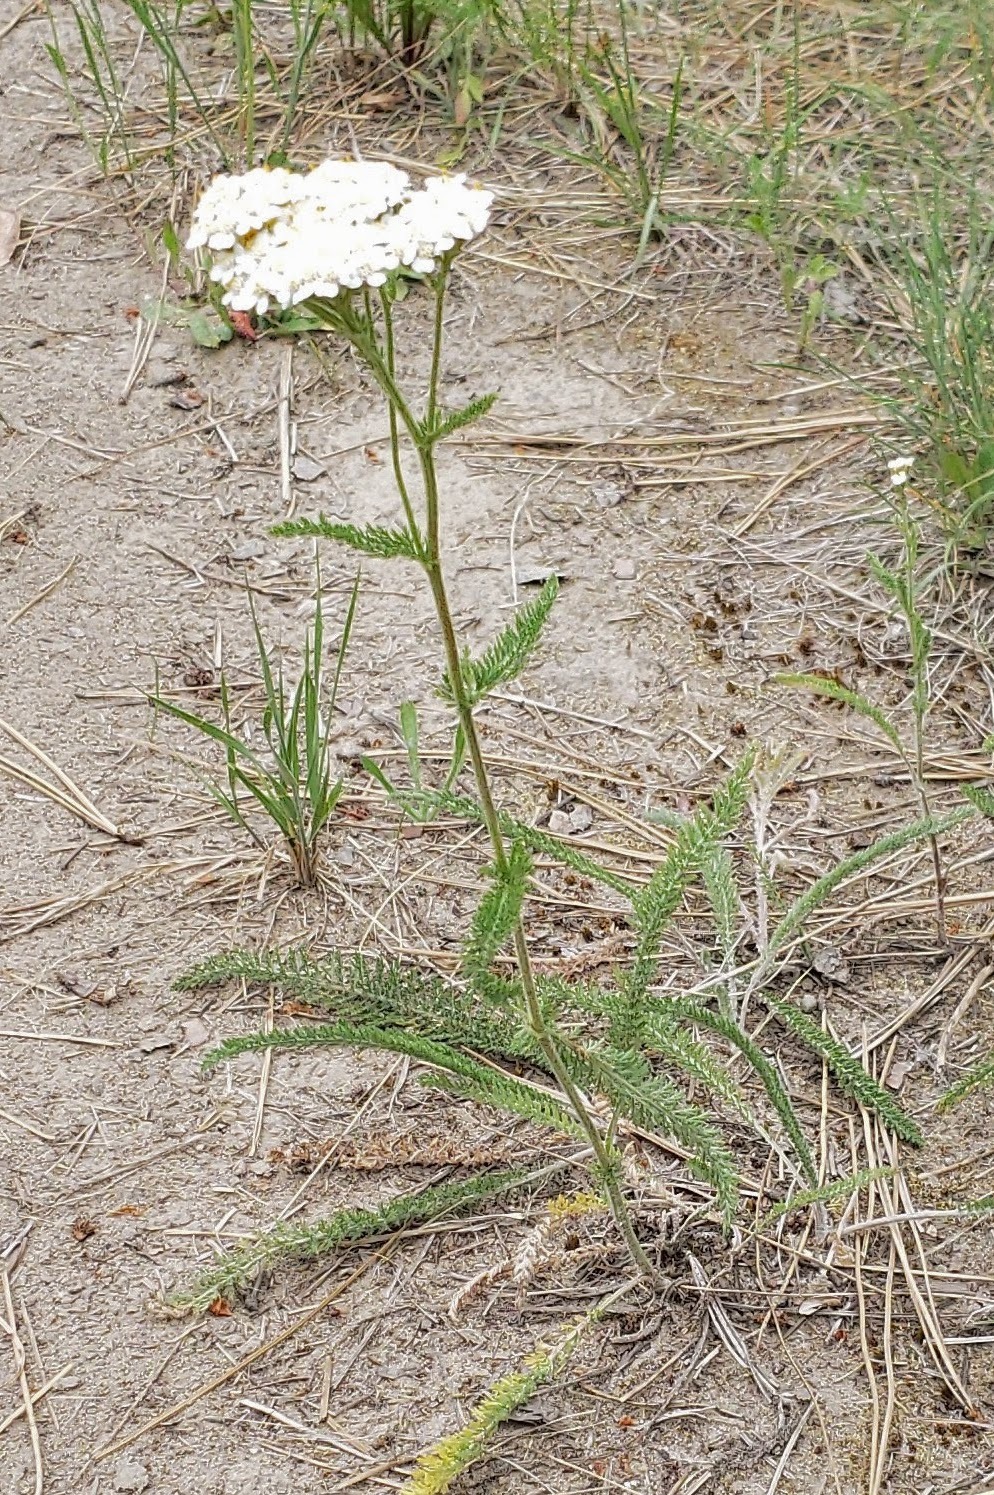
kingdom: Plantae
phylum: Tracheophyta
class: Magnoliopsida
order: Asterales
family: Asteraceae
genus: Achillea
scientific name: Achillea millefolium
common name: Yarrow
